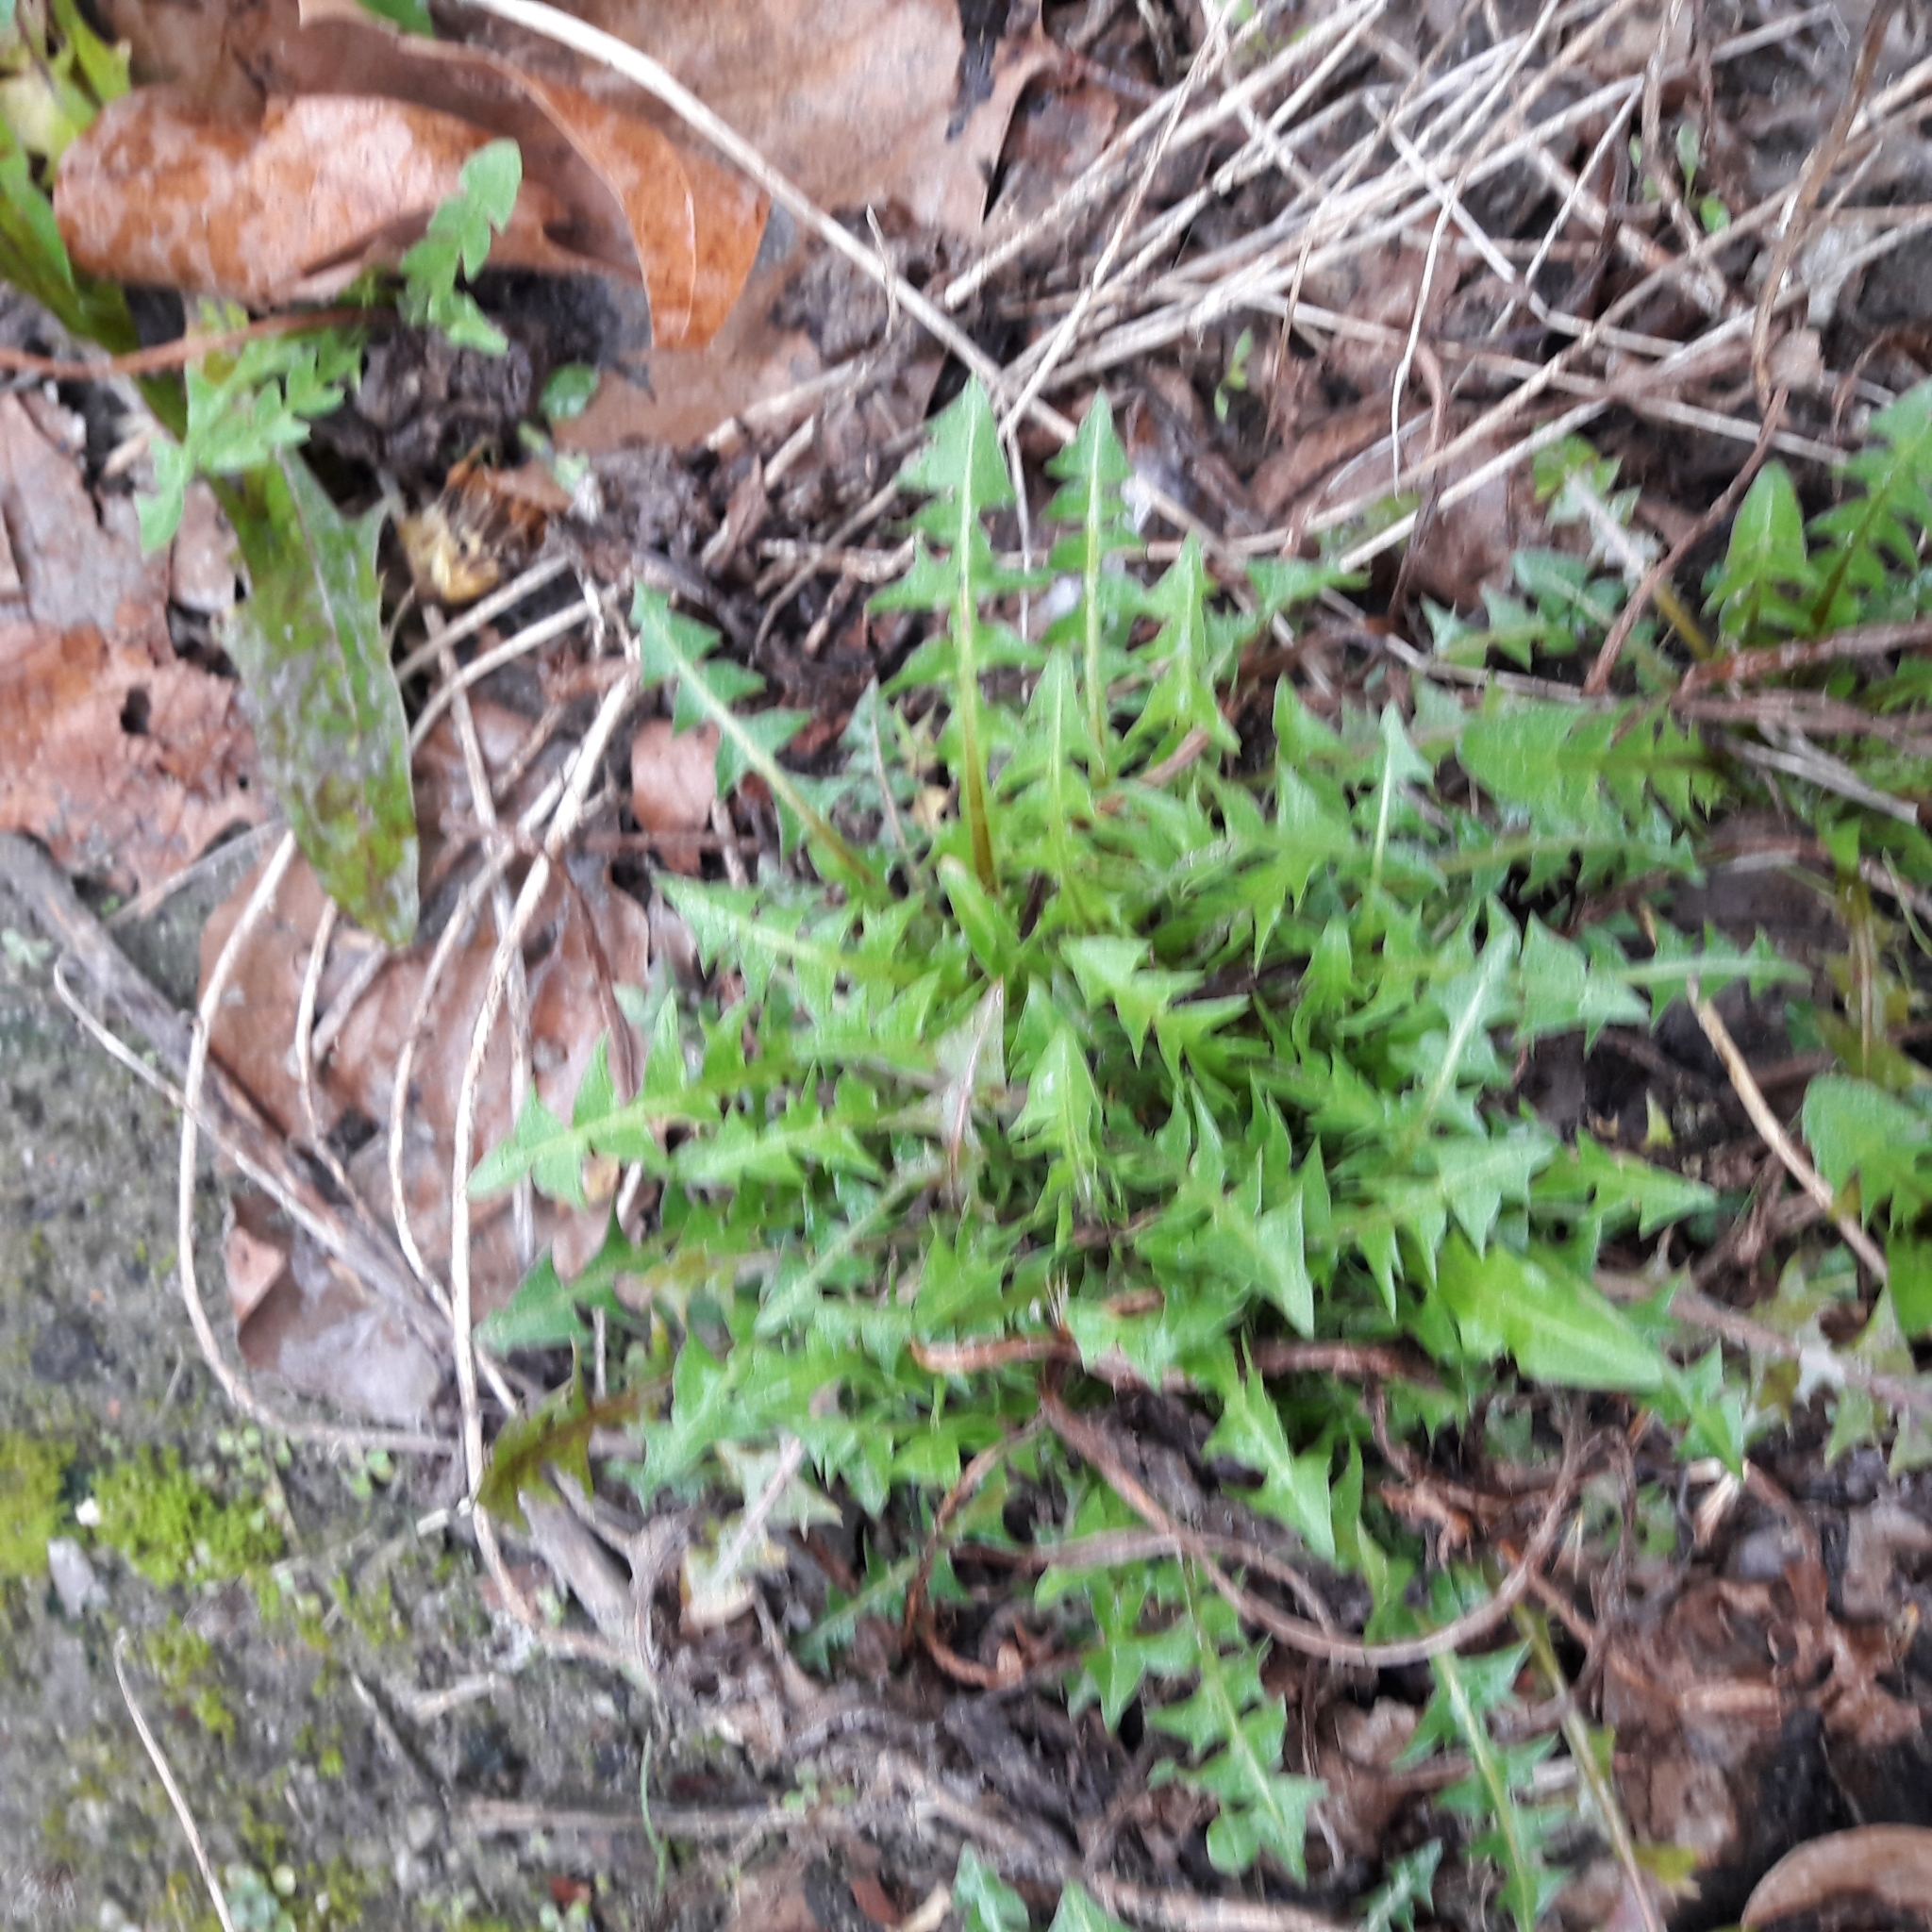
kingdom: Plantae
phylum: Tracheophyta
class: Magnoliopsida
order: Asterales
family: Asteraceae
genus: Taraxacum
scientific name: Taraxacum officinale
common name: Common dandelion
